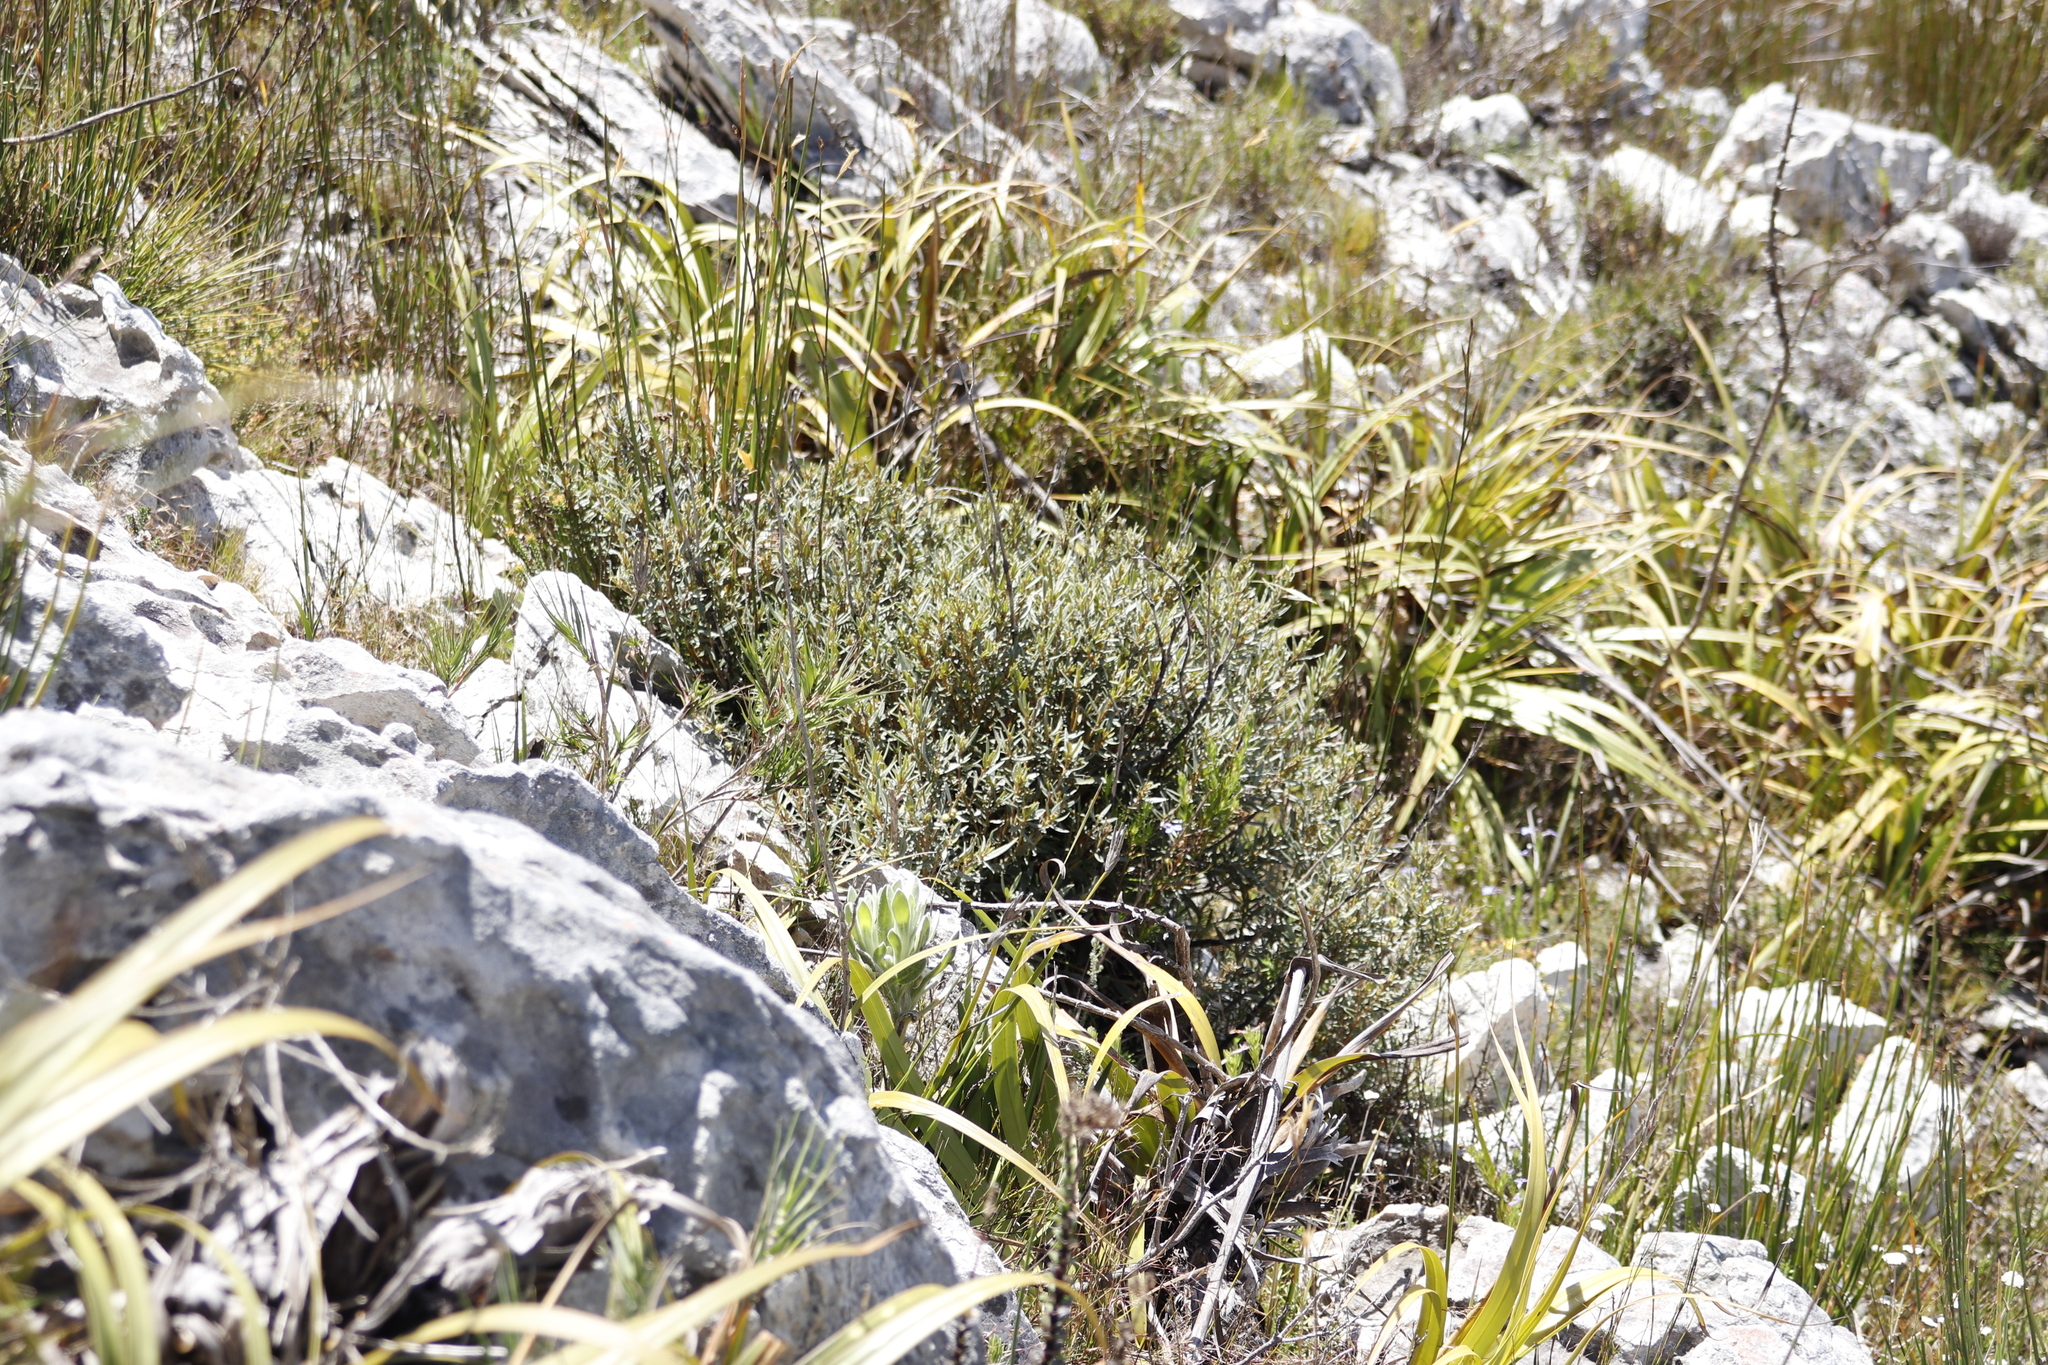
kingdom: Plantae
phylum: Tracheophyta
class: Magnoliopsida
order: Cornales
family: Grubbiaceae
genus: Grubbia
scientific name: Grubbia tomentosa
